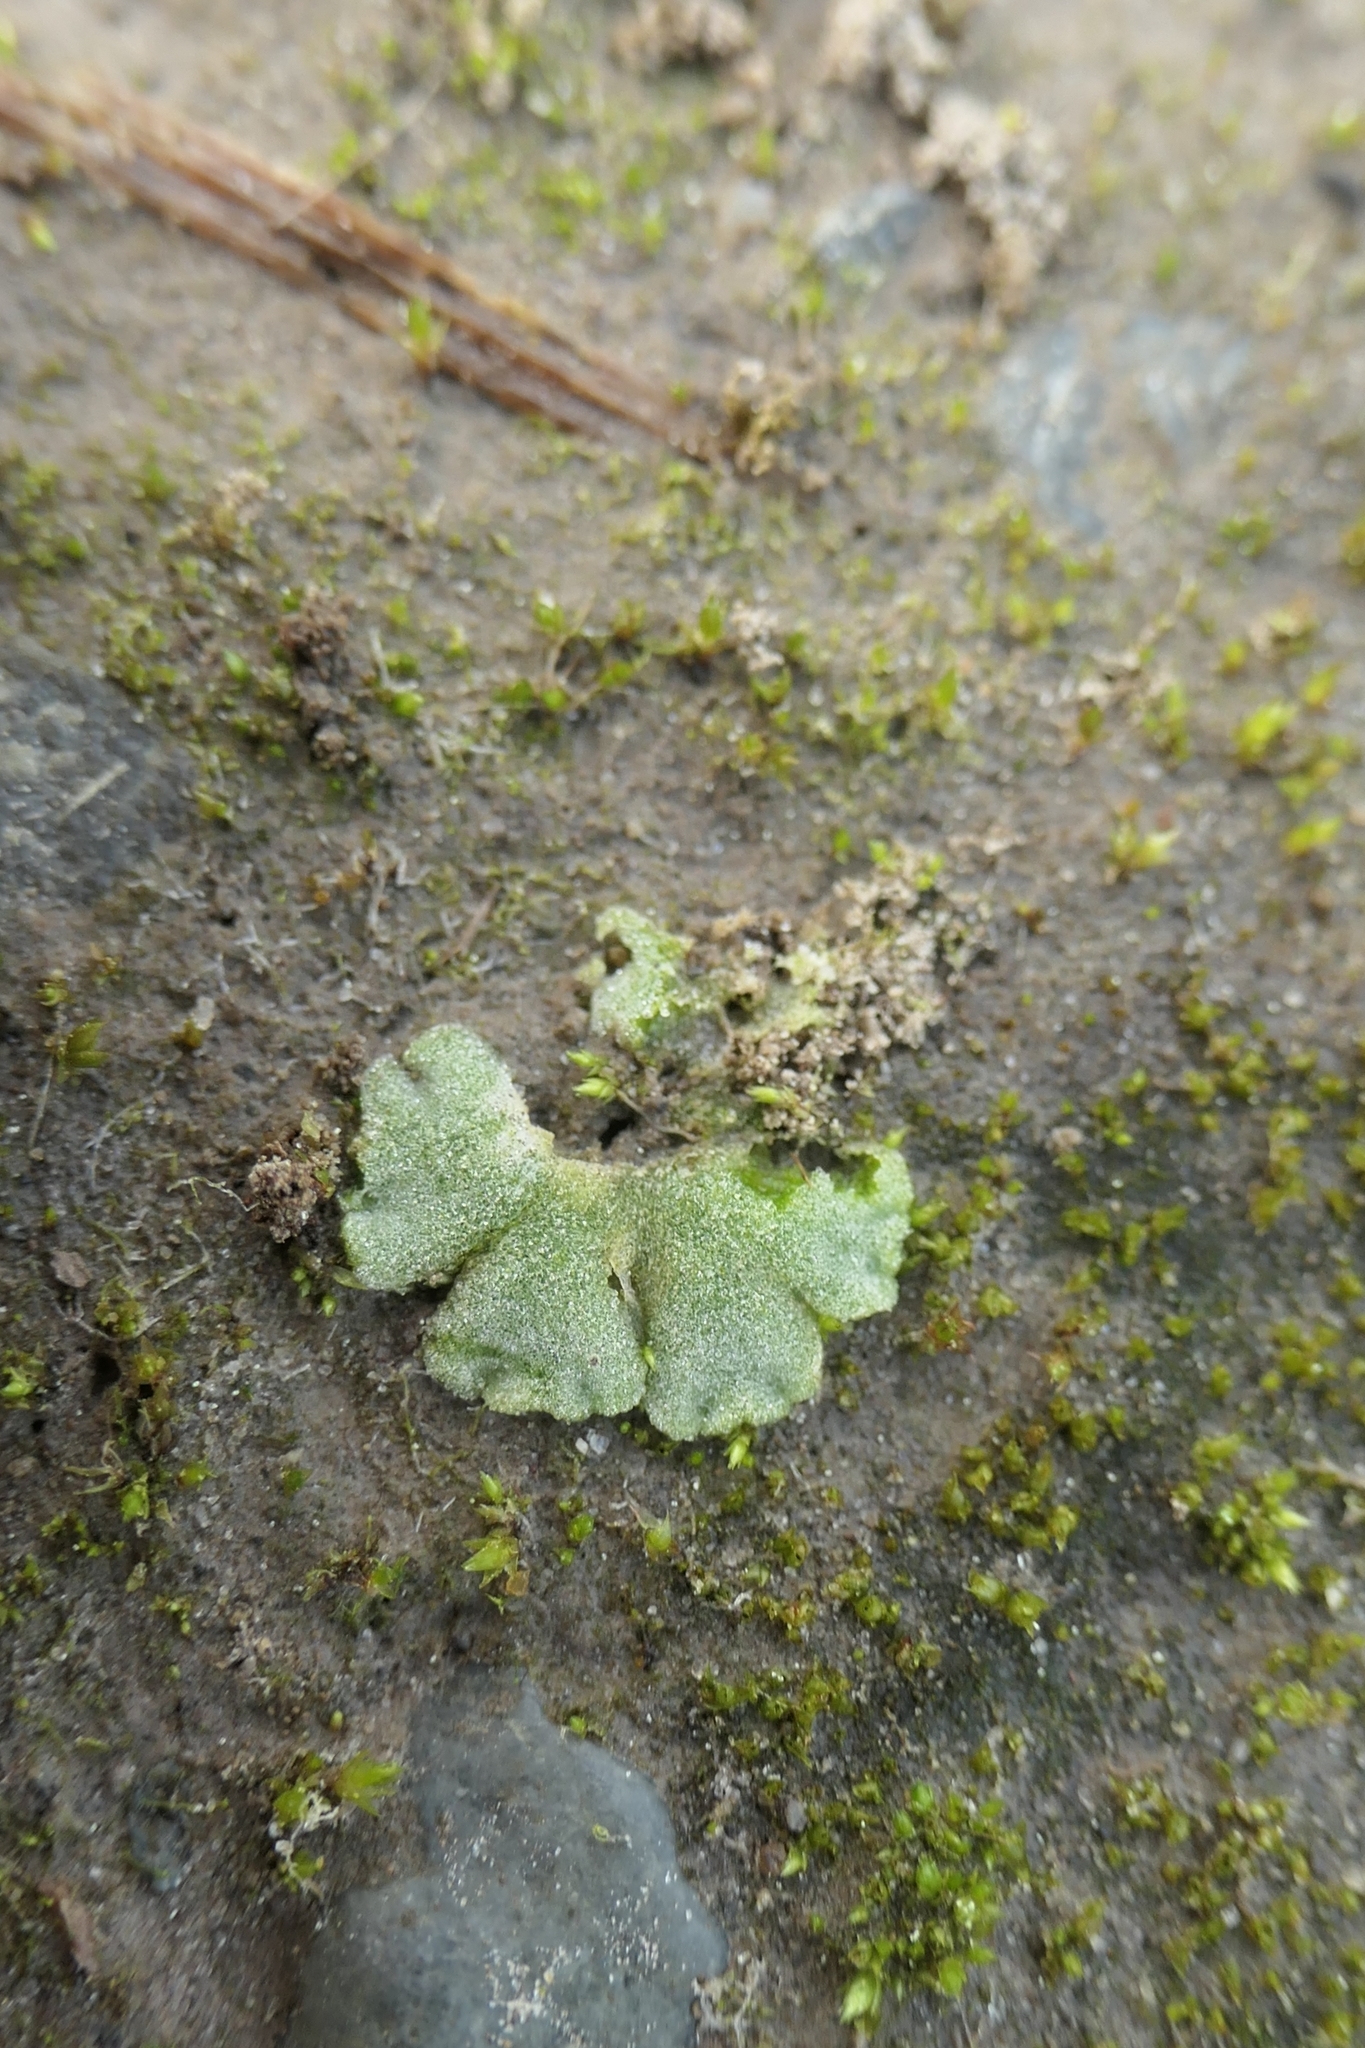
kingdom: Plantae
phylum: Marchantiophyta
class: Marchantiopsida
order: Marchantiales
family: Ricciaceae
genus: Riccia
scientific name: Riccia crystallina
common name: Blue crystalwort
